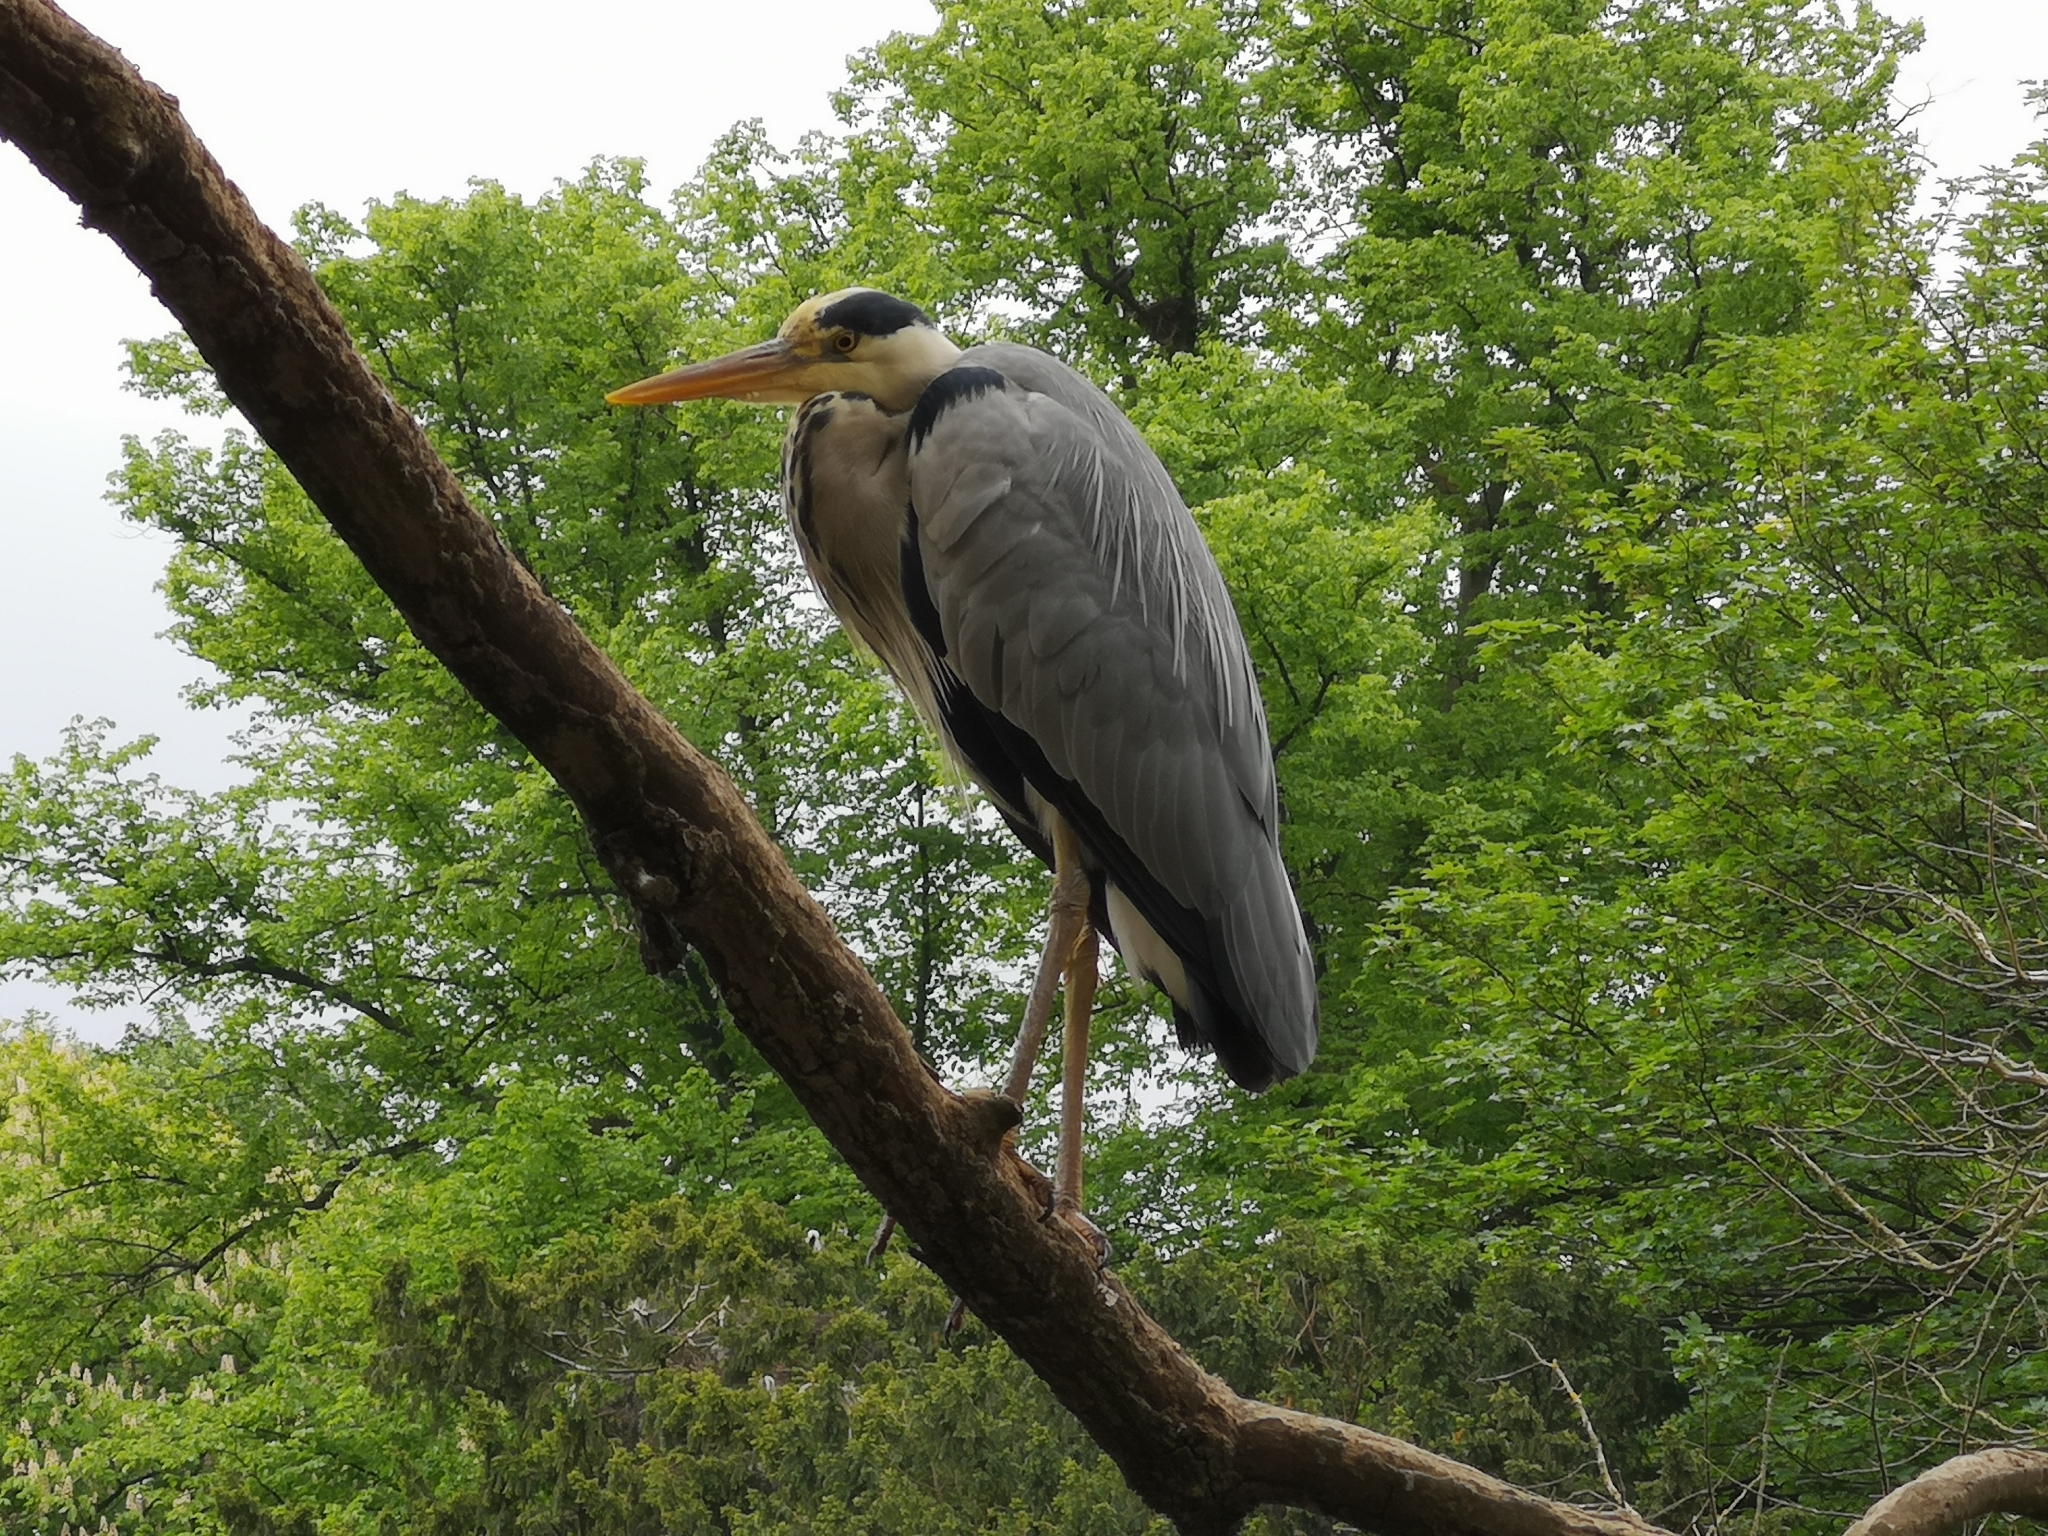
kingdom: Animalia
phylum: Chordata
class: Aves
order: Pelecaniformes
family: Ardeidae
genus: Ardea
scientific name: Ardea cinerea
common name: Grey heron
